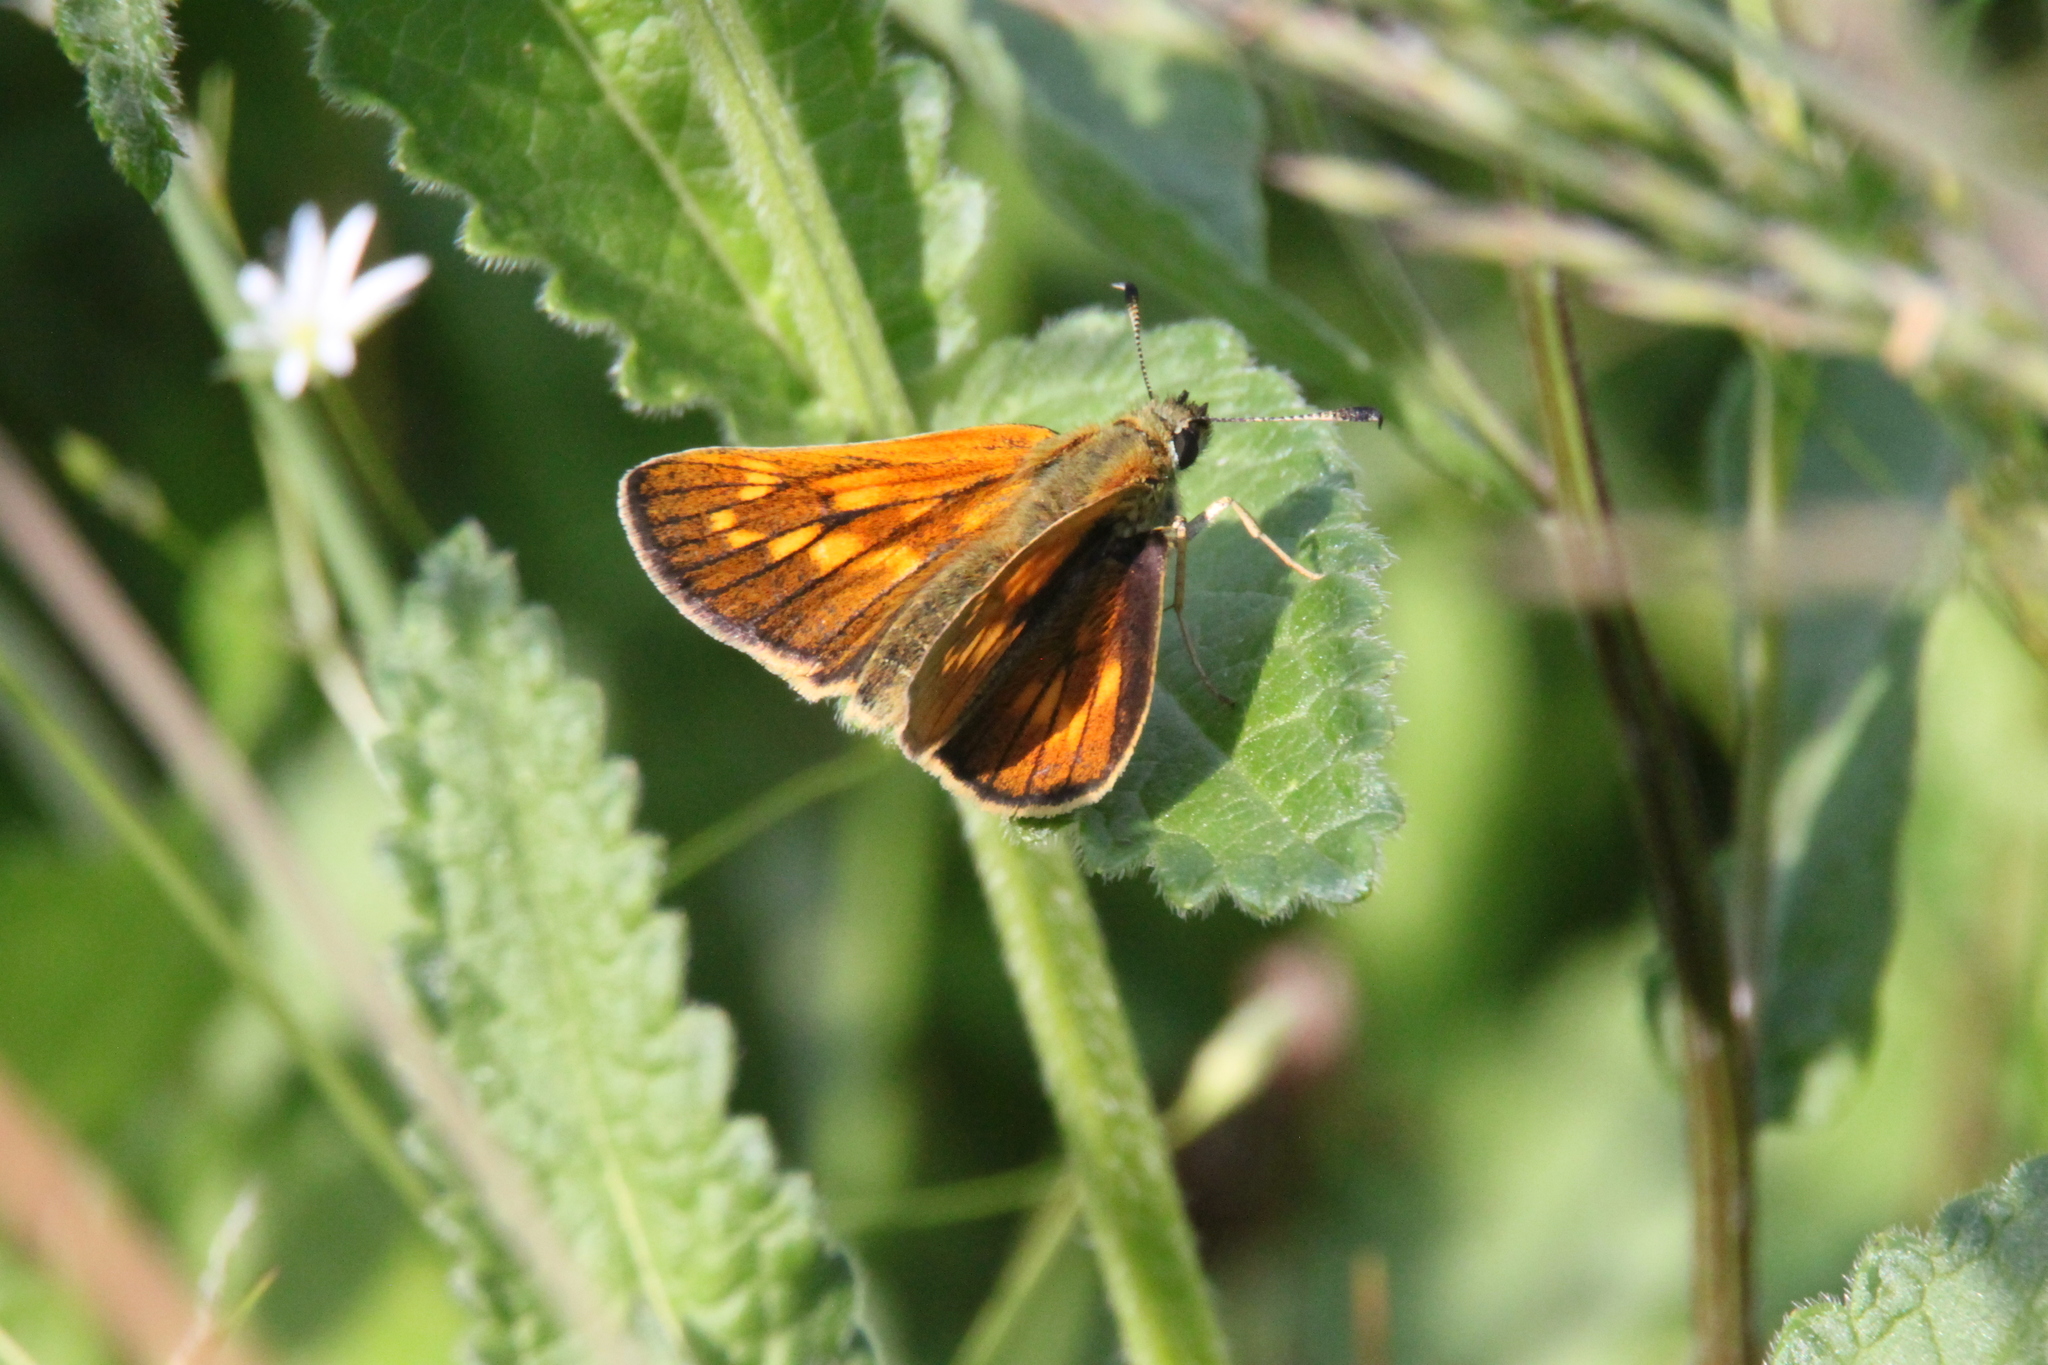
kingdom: Animalia
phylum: Arthropoda
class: Insecta
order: Lepidoptera
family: Hesperiidae
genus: Ochlodes
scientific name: Ochlodes venata
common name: Large skipper
